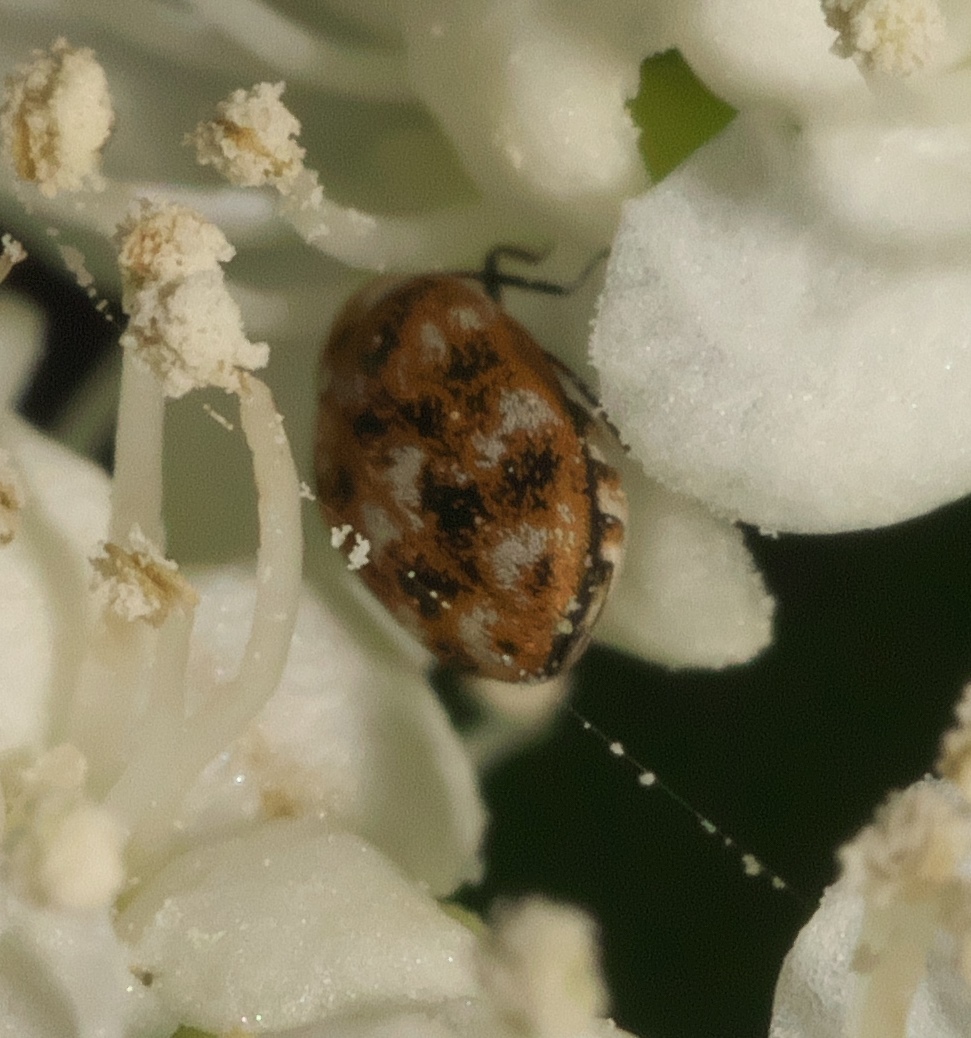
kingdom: Animalia
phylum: Arthropoda
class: Insecta
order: Coleoptera
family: Dermestidae
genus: Anthrenus
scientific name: Anthrenus verbasci
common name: Varied carpet beetle
